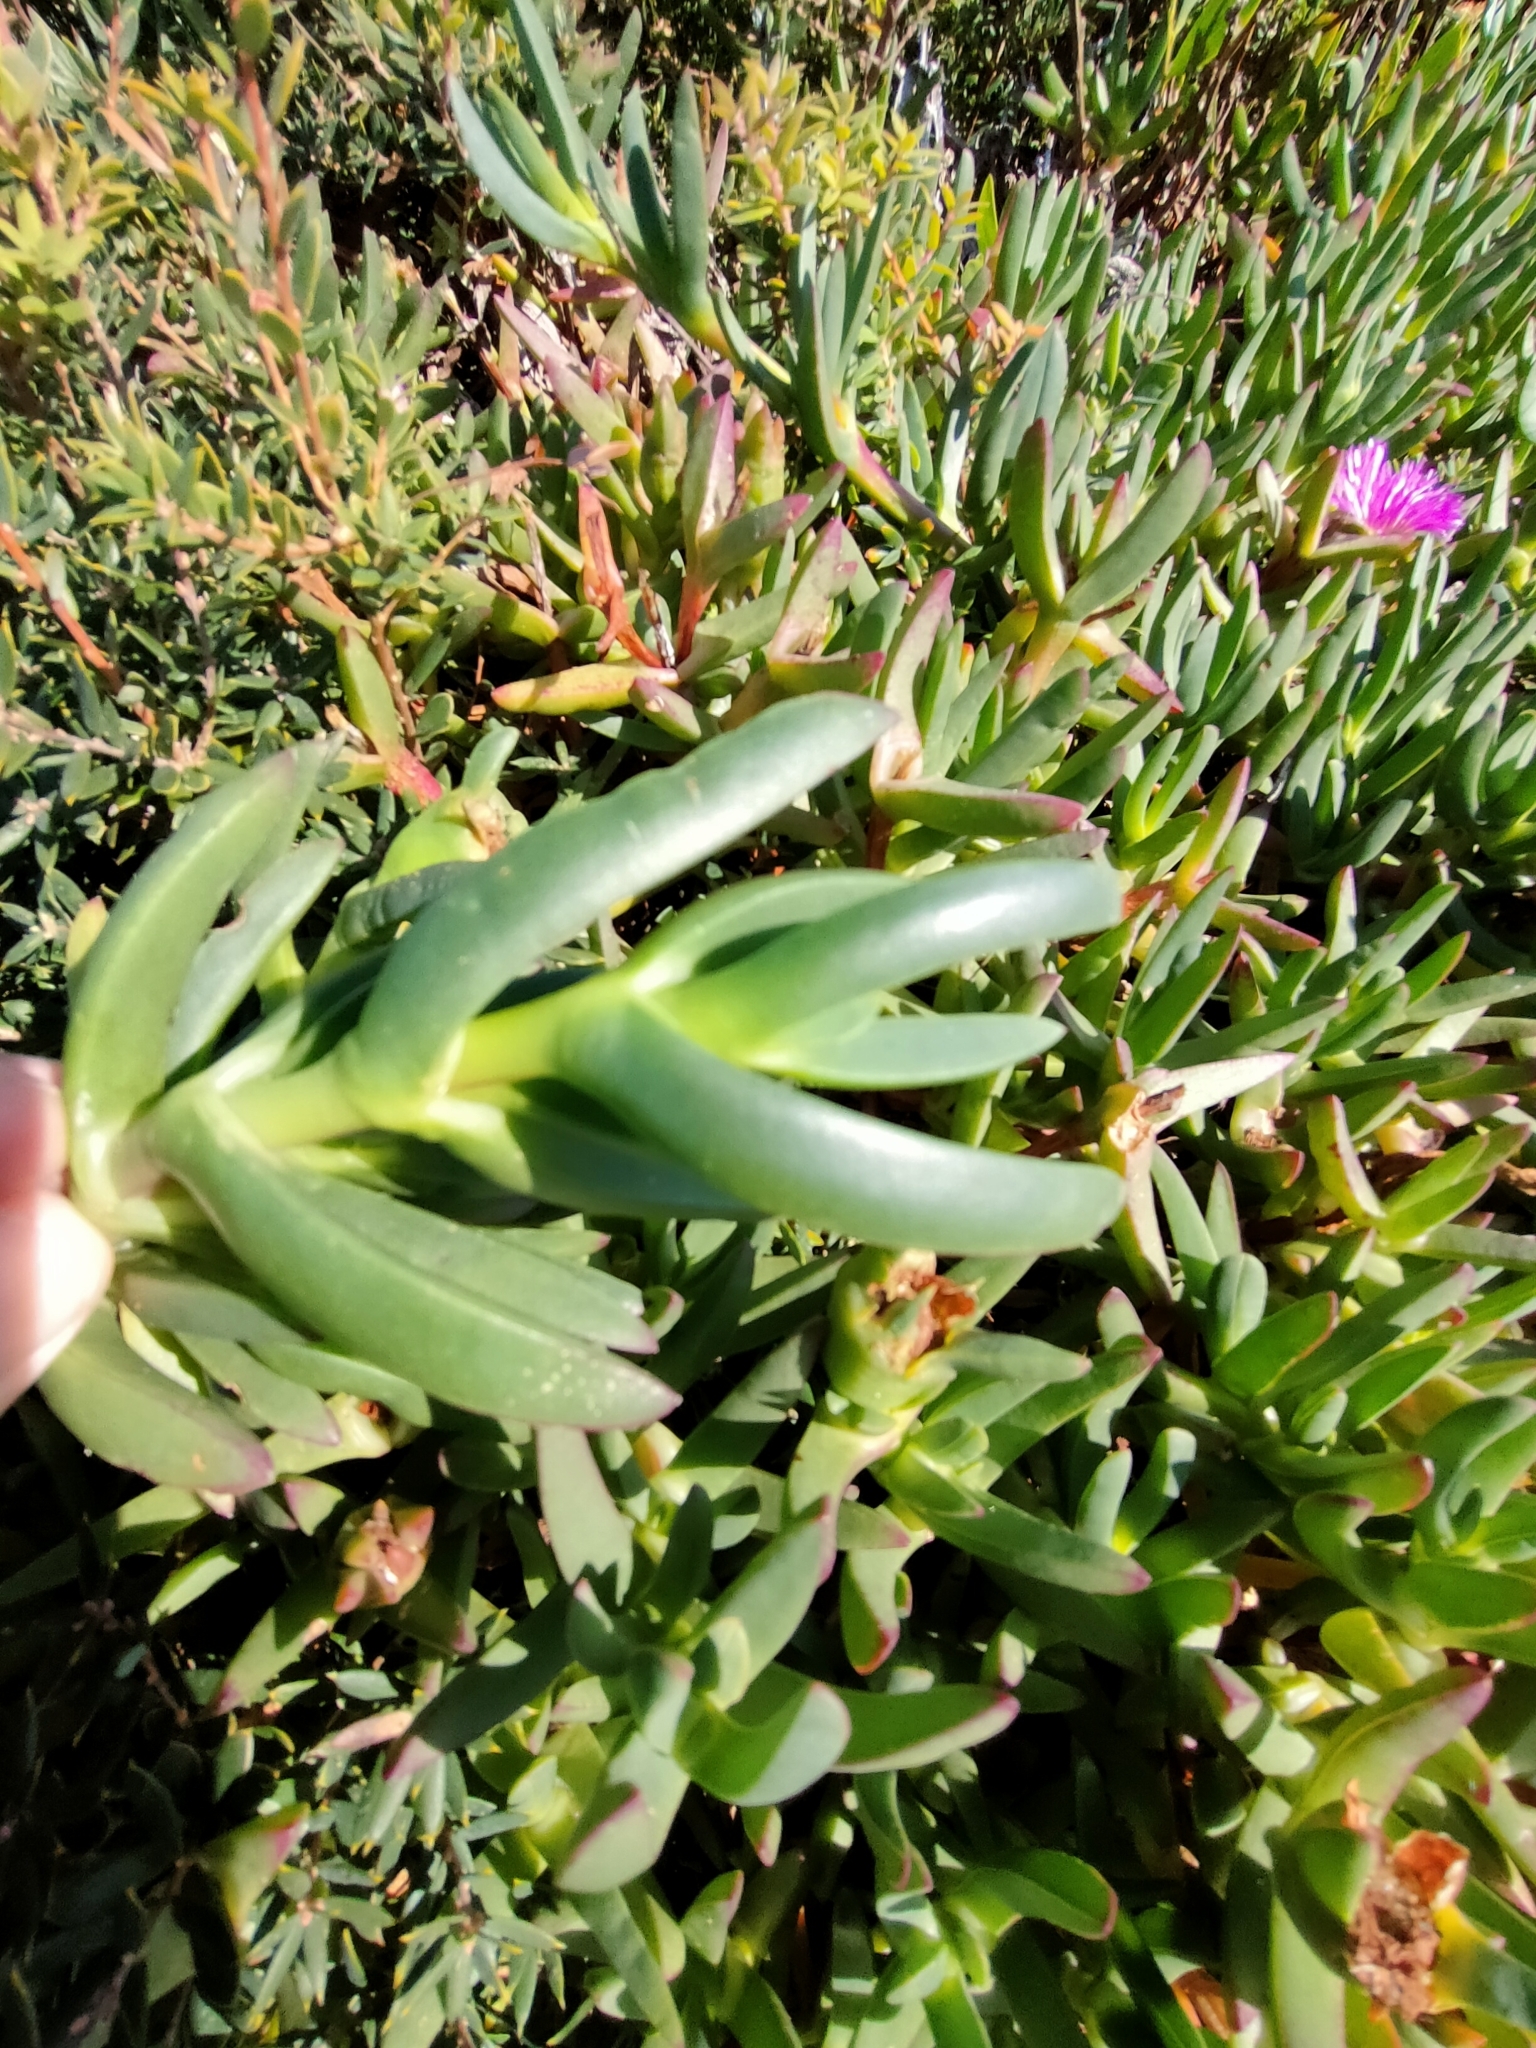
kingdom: Plantae
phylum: Tracheophyta
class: Magnoliopsida
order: Caryophyllales
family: Aizoaceae
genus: Carpobrotus
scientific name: Carpobrotus rossii
